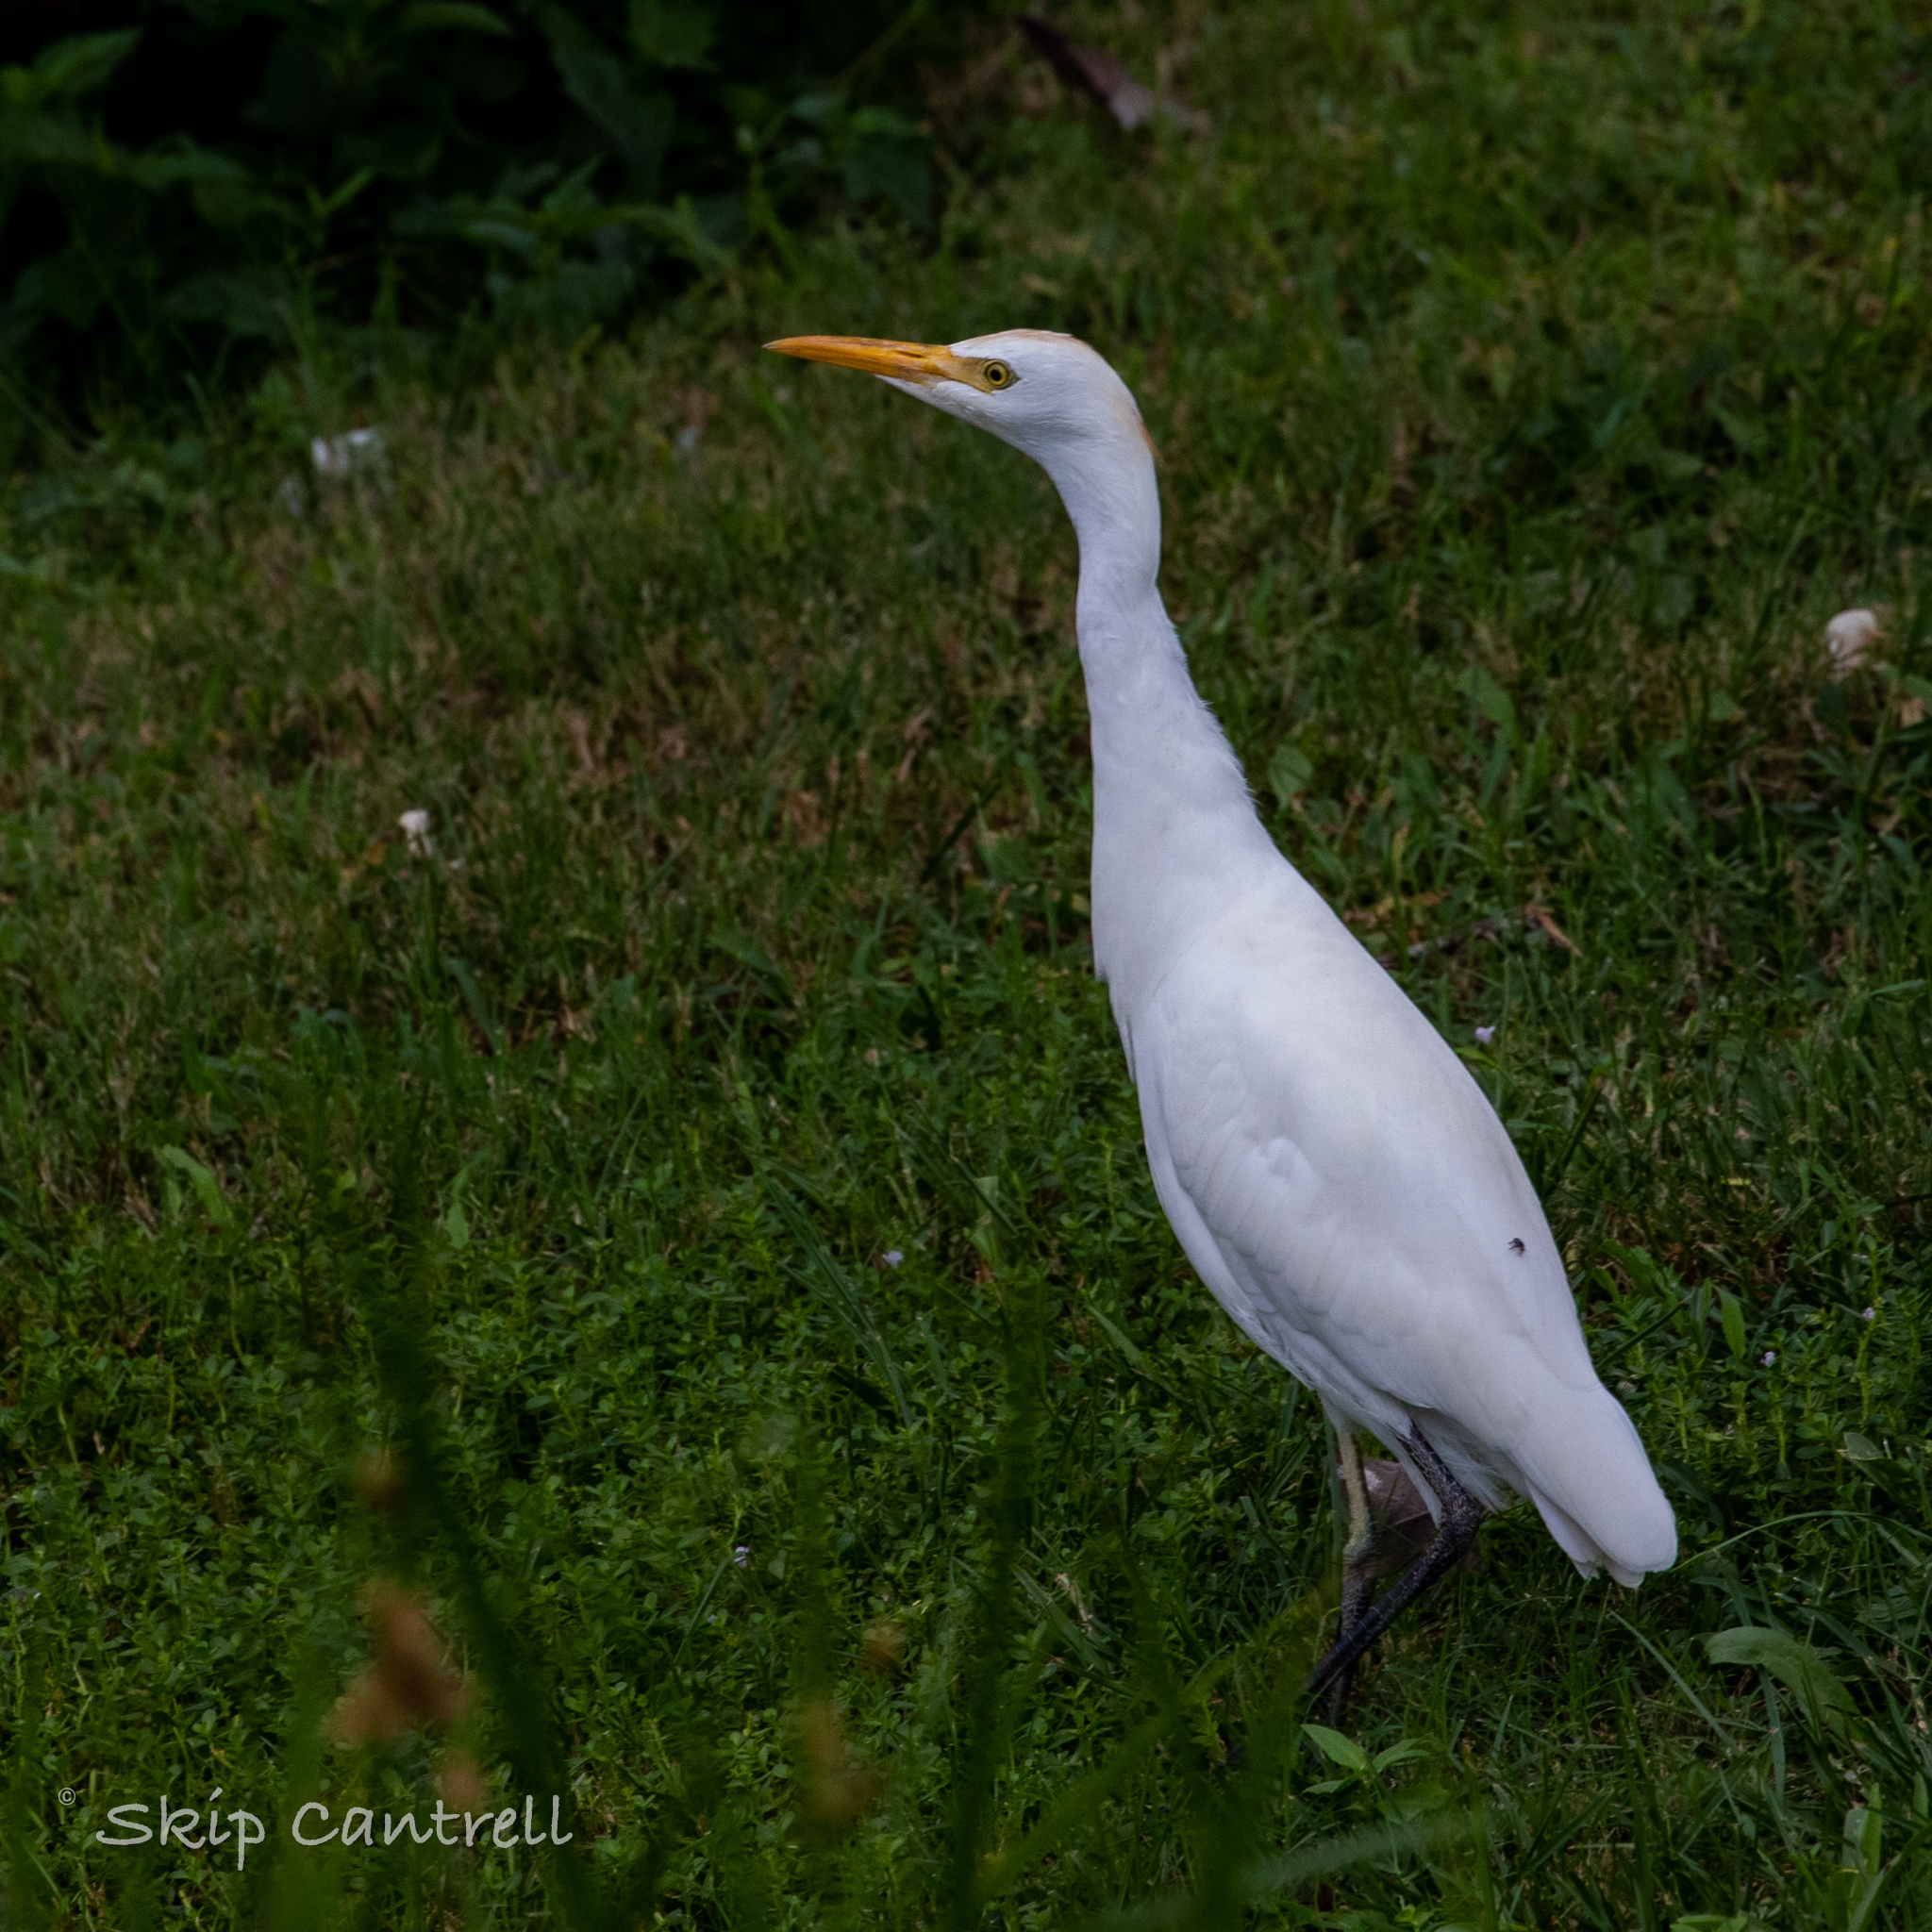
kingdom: Animalia
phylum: Chordata
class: Aves
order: Pelecaniformes
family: Ardeidae
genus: Bubulcus
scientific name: Bubulcus ibis
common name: Cattle egret
